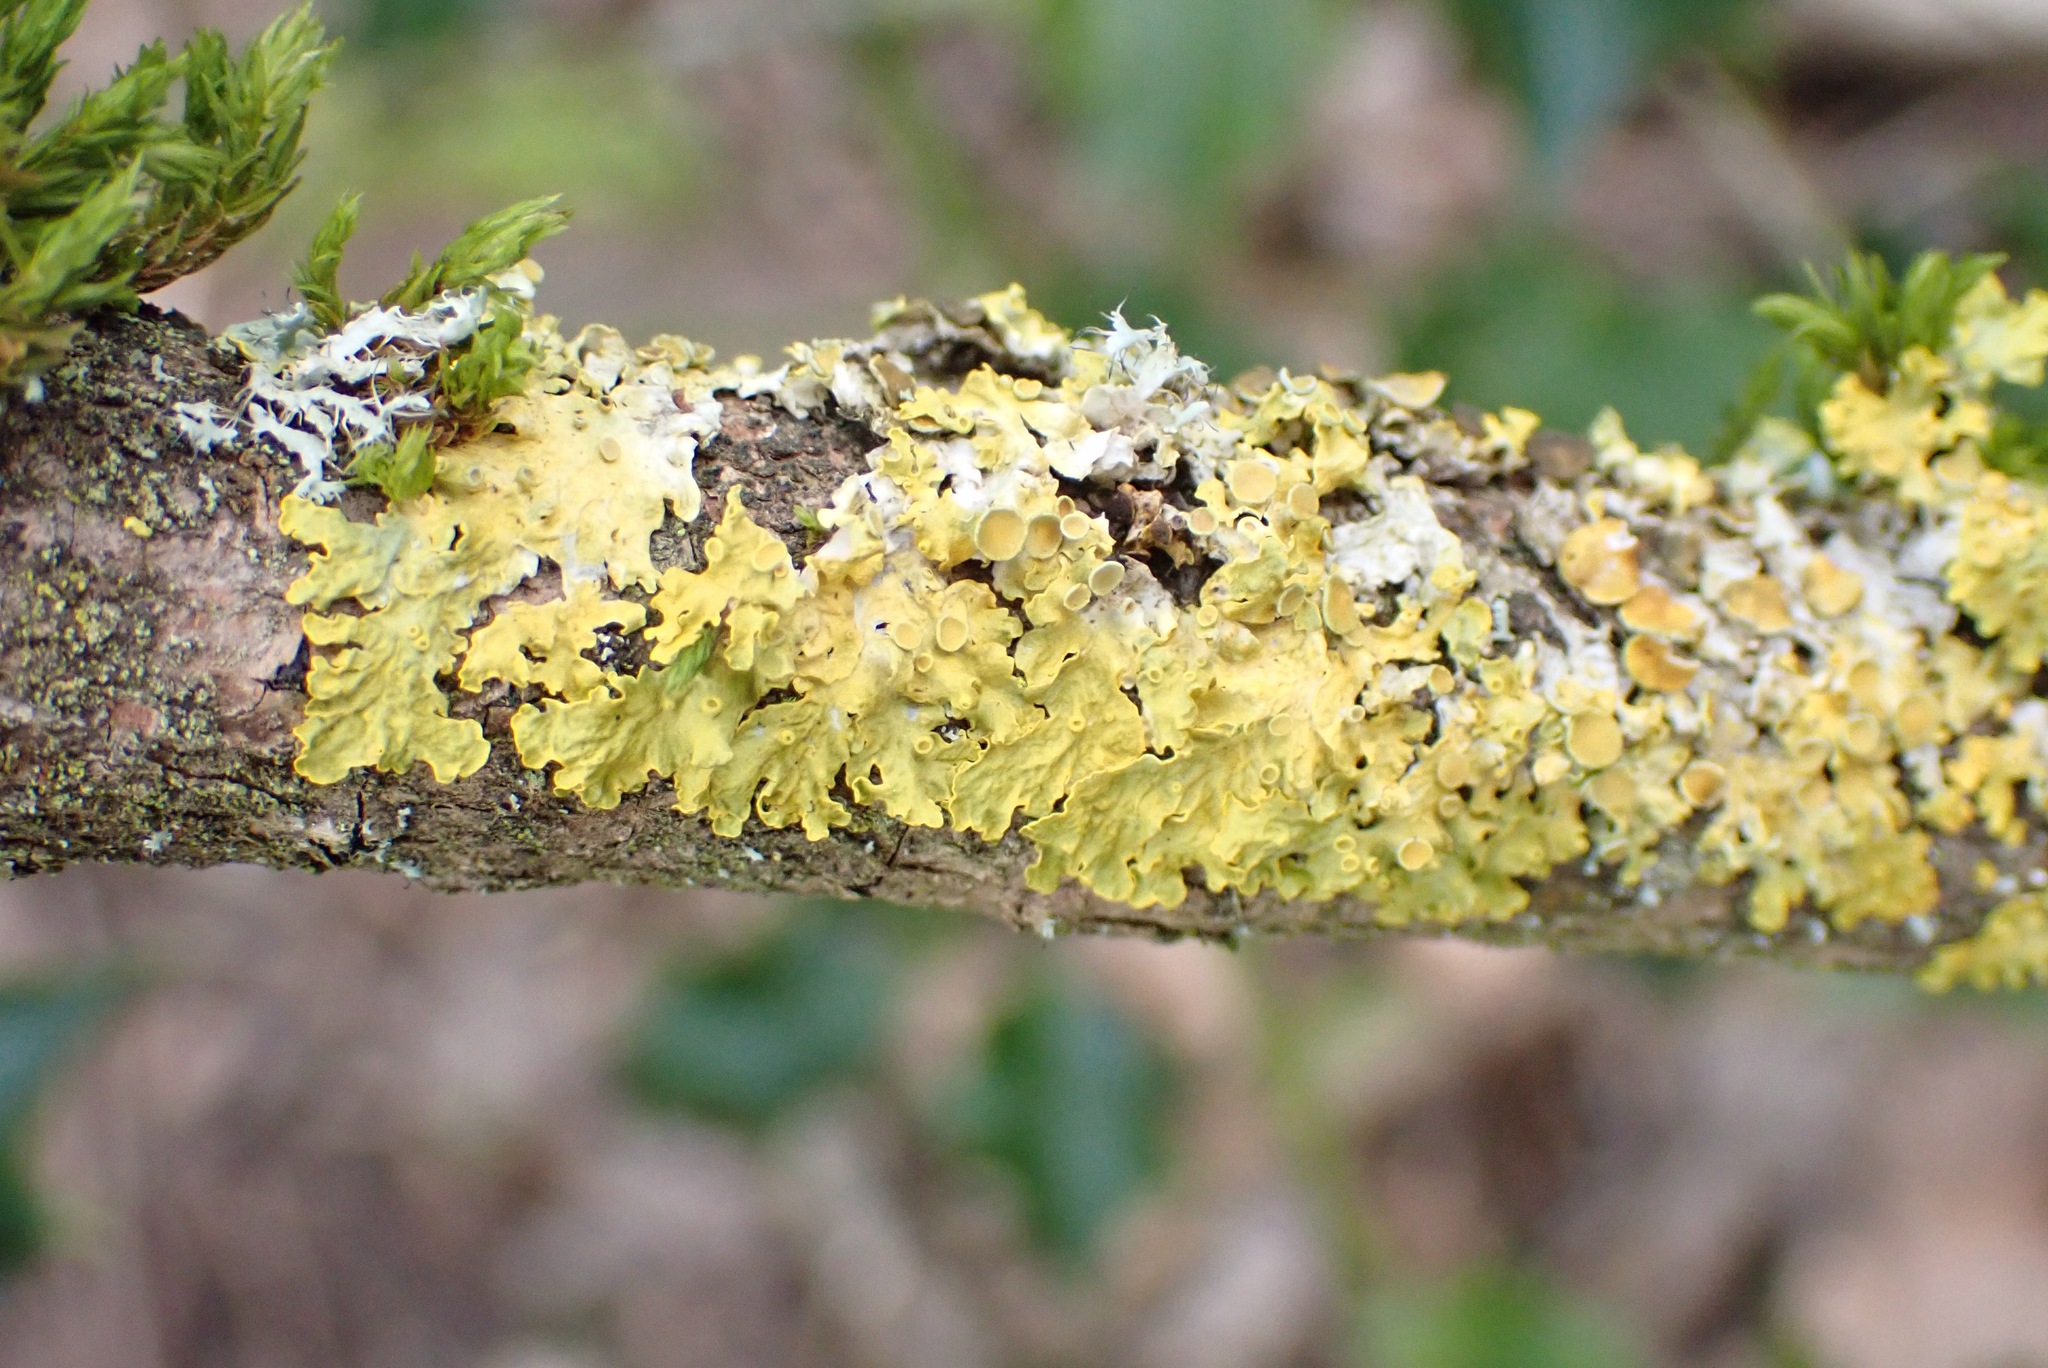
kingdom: Fungi
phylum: Ascomycota
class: Lecanoromycetes
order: Teloschistales
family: Teloschistaceae
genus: Xanthoria
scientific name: Xanthoria parietina
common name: Common orange lichen
